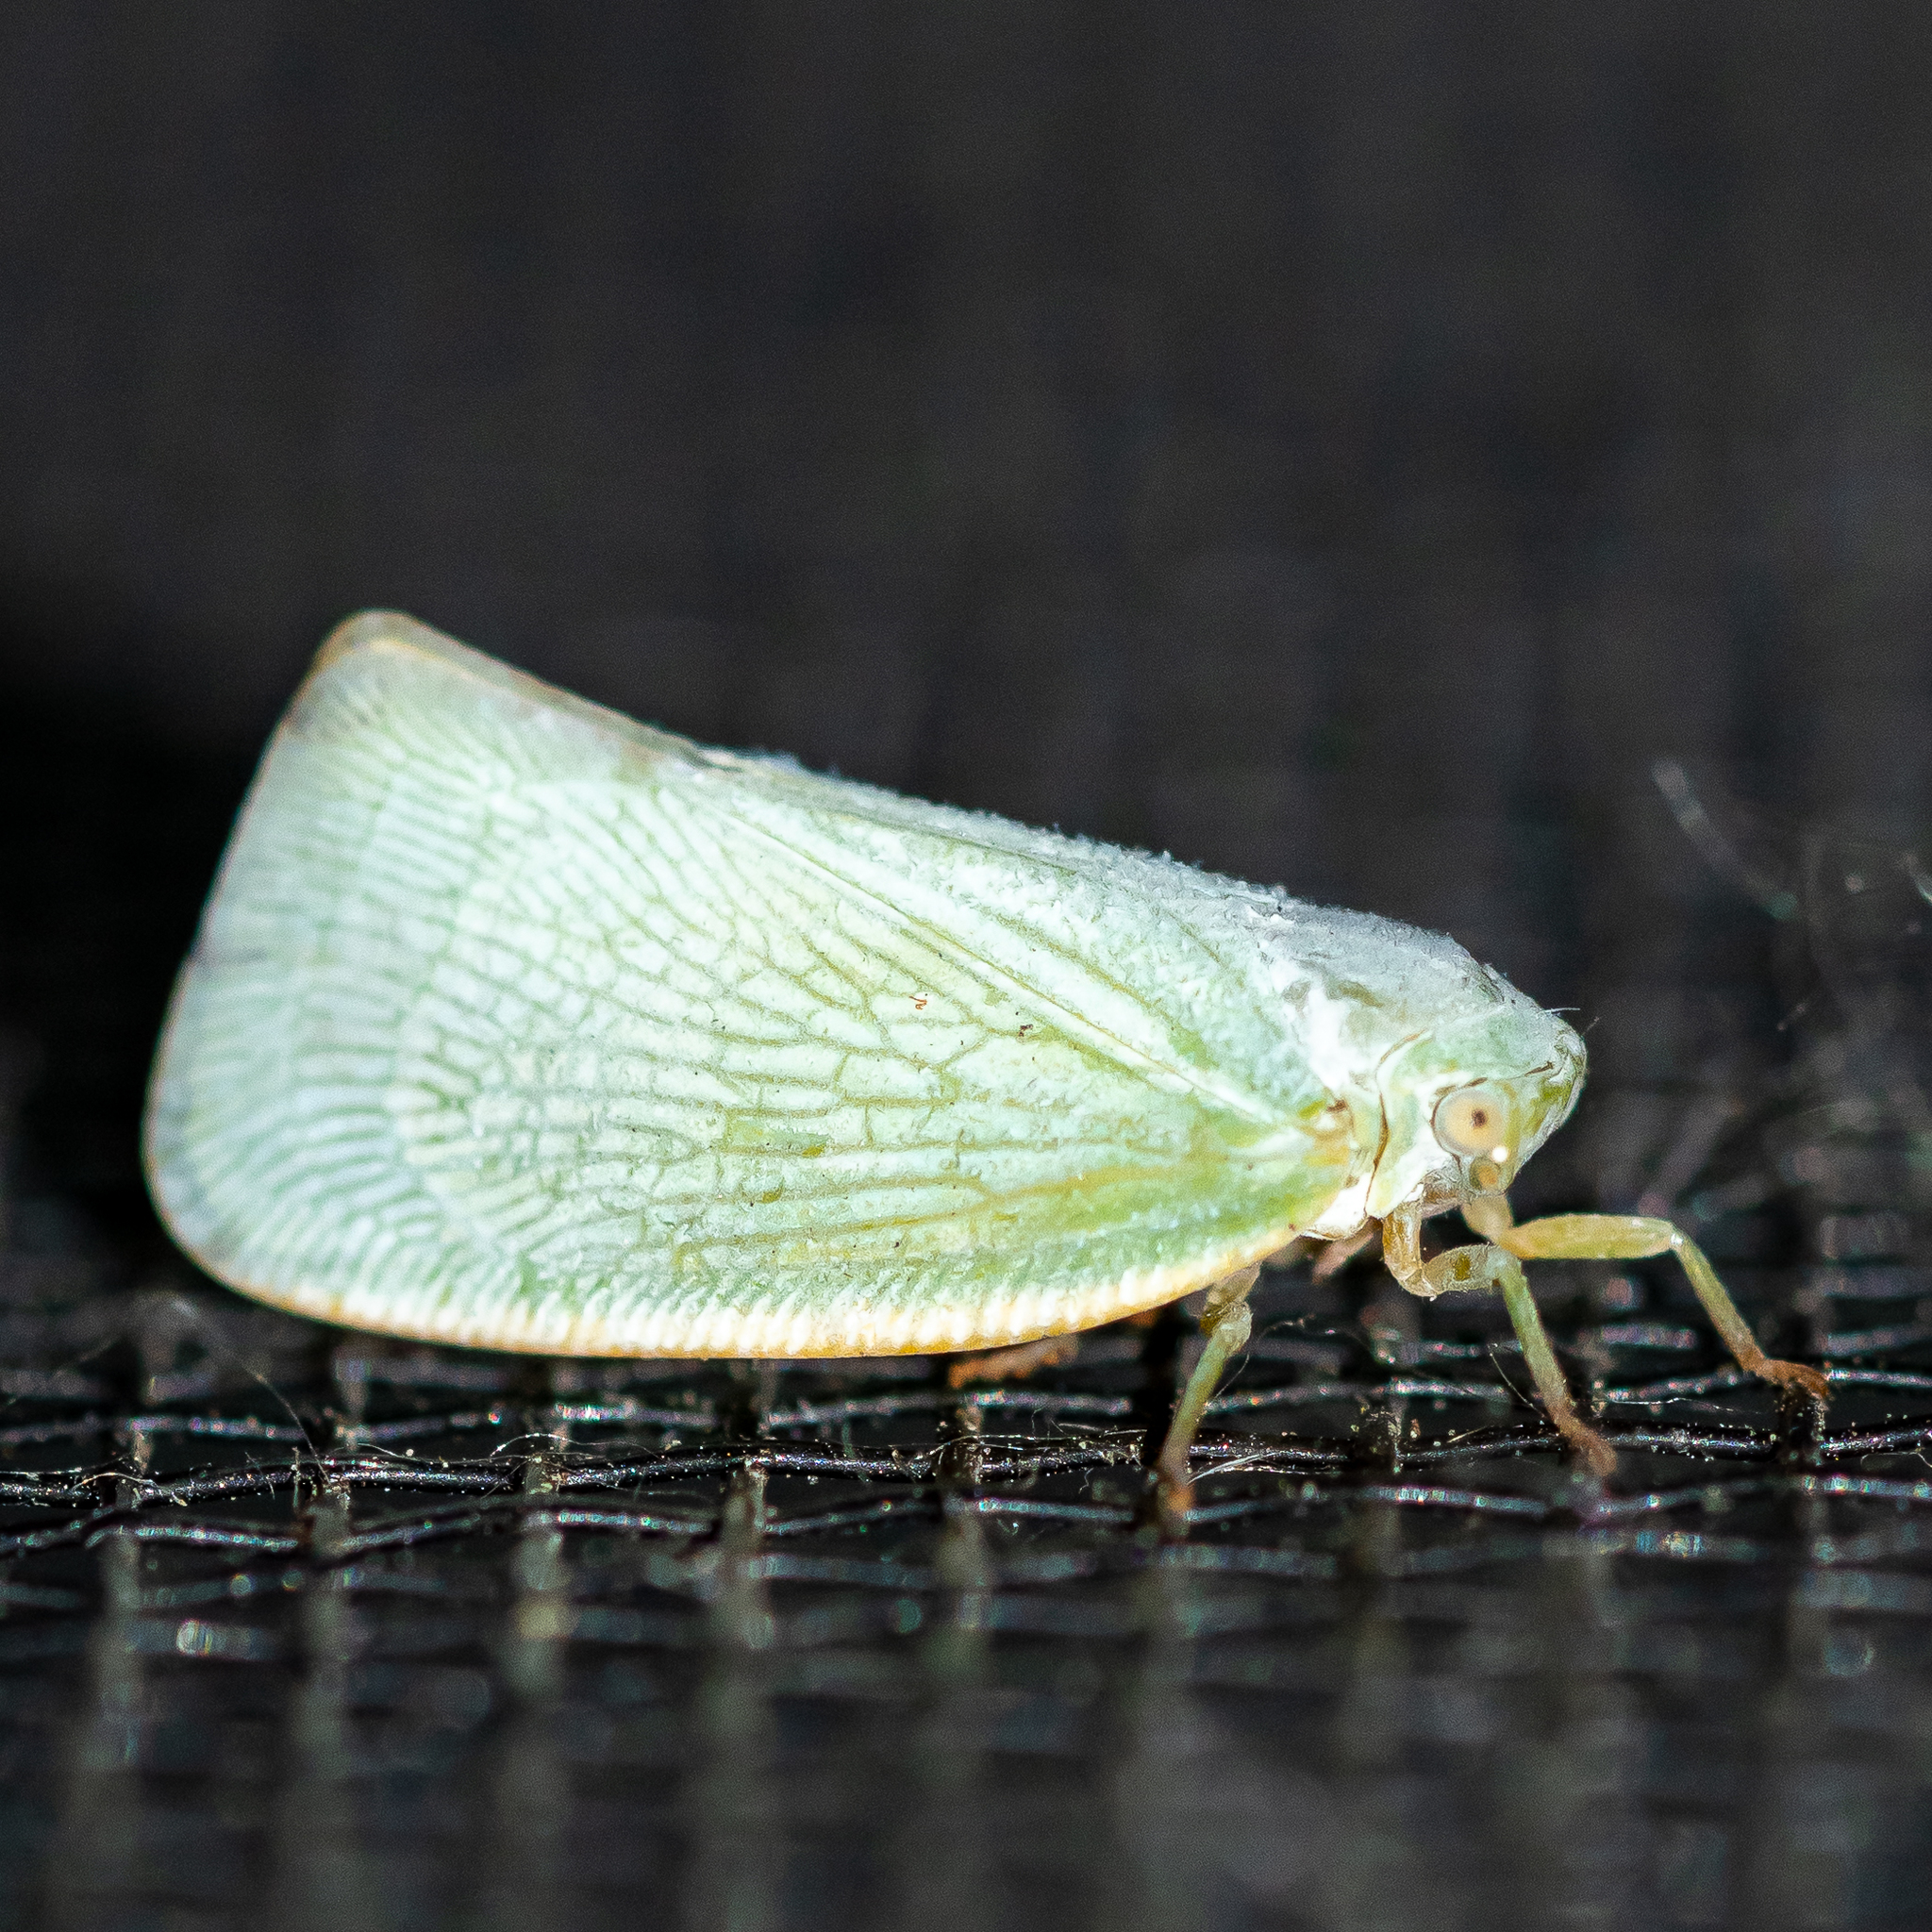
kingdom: Animalia
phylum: Arthropoda
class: Insecta
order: Hemiptera
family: Flatidae
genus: Flatormenis
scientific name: Flatormenis proxima
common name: Northern flatid planthopper
